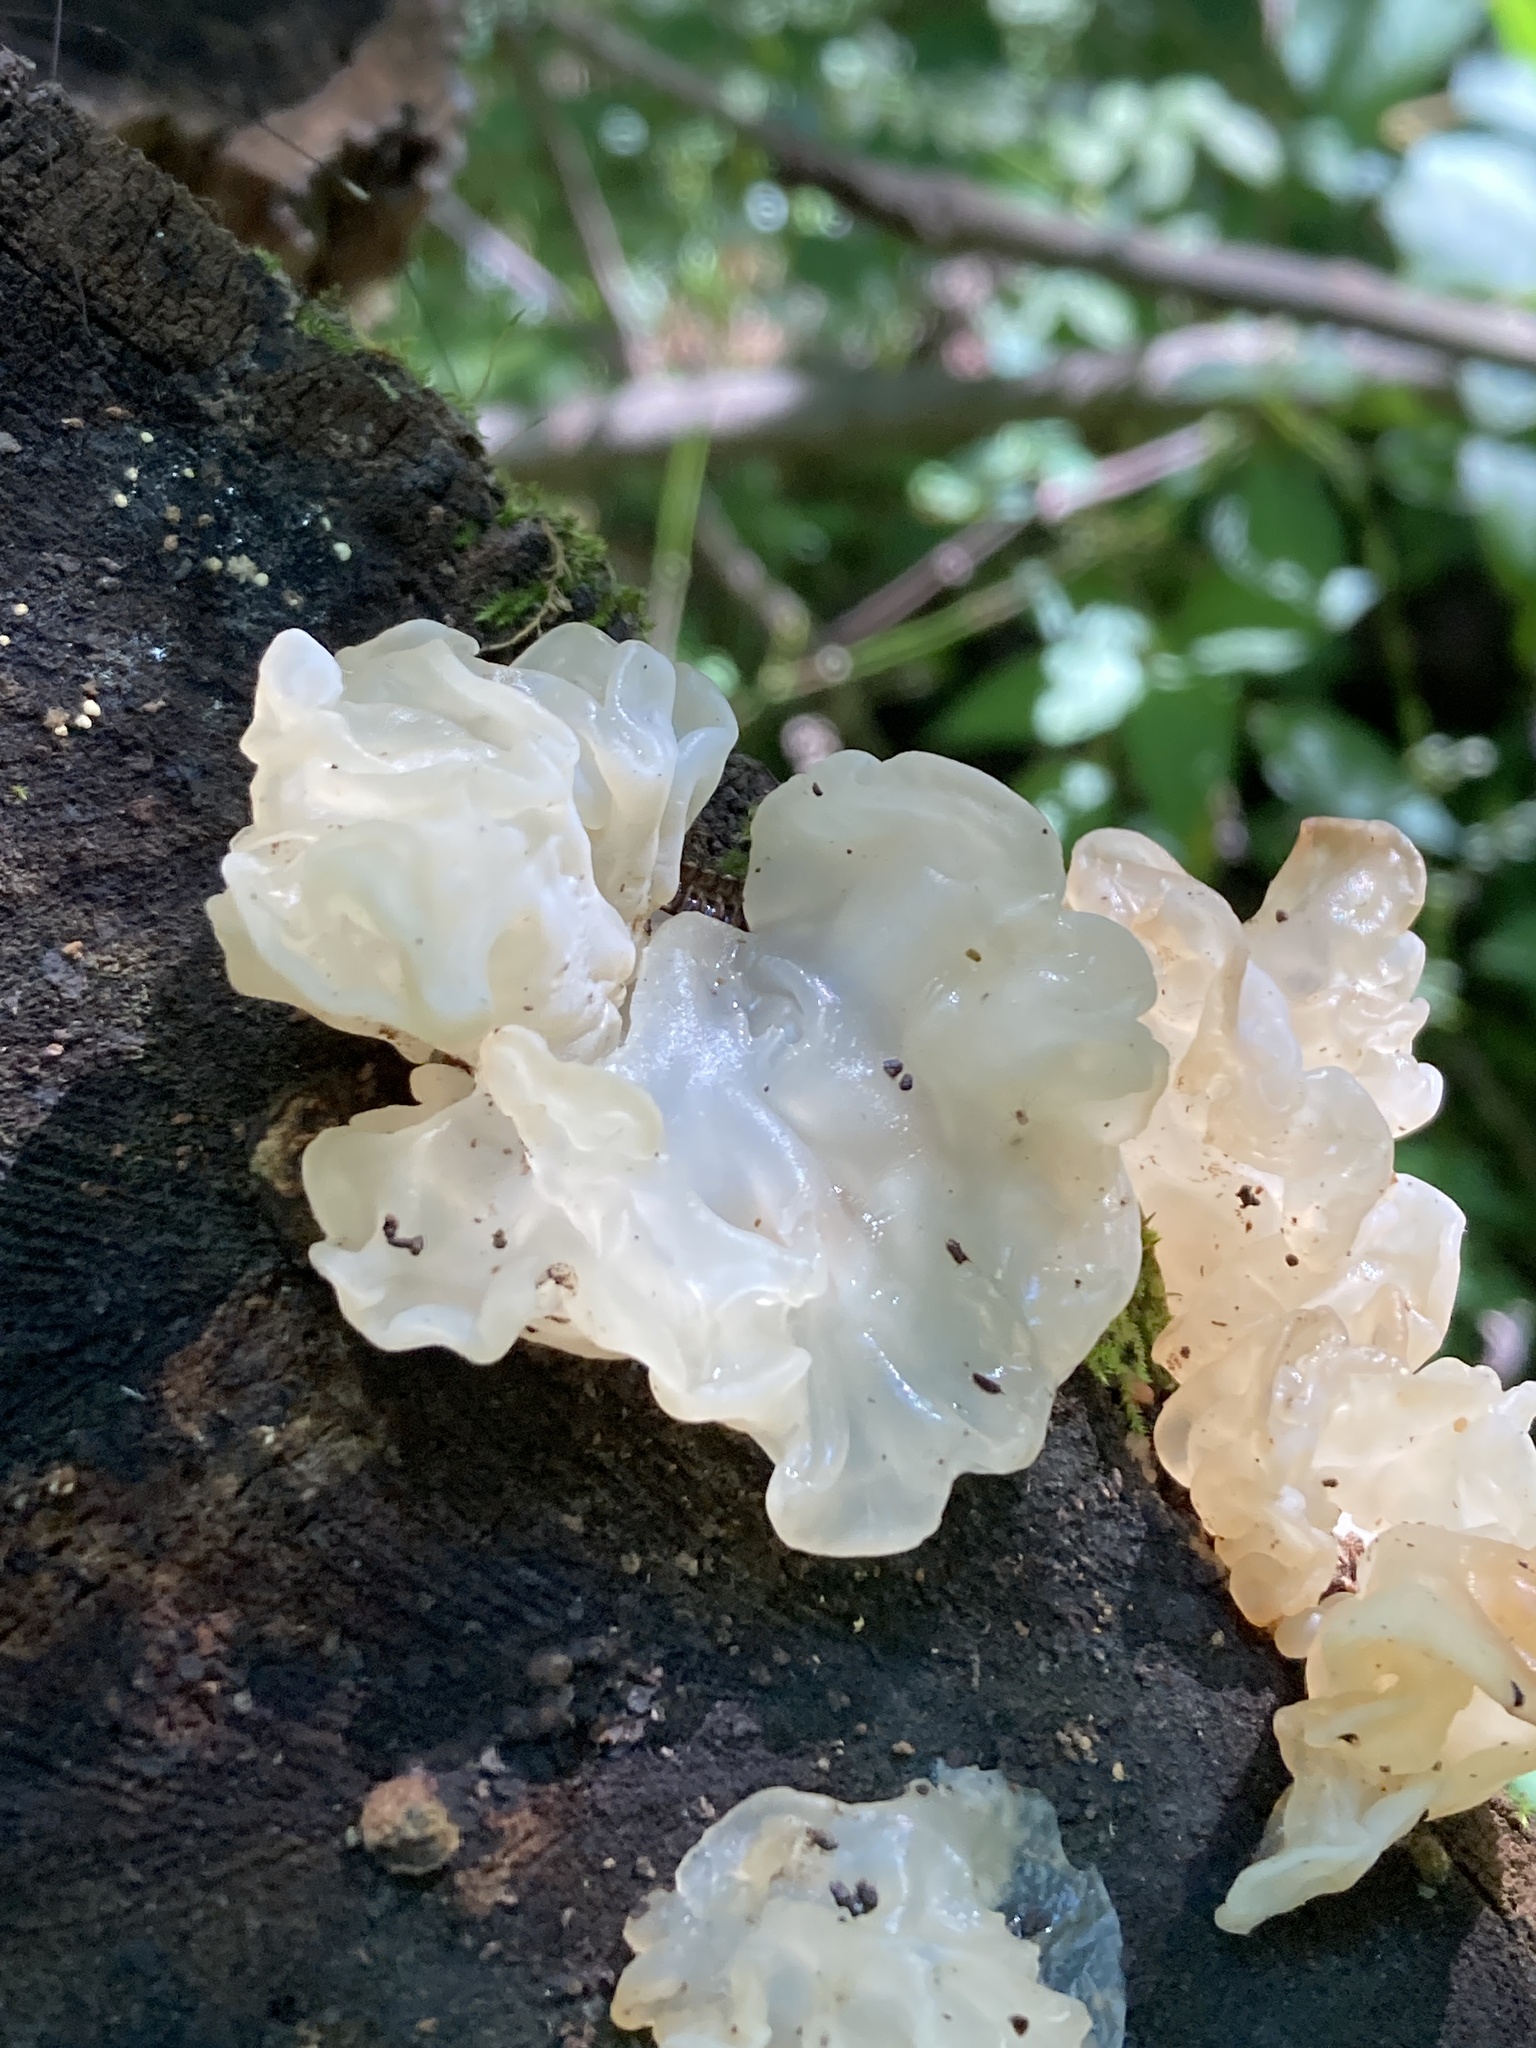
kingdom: Fungi
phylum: Basidiomycota
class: Agaricomycetes
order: Auriculariales
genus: Ductifera
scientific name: Ductifera pululahuana
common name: White jelly fungus
